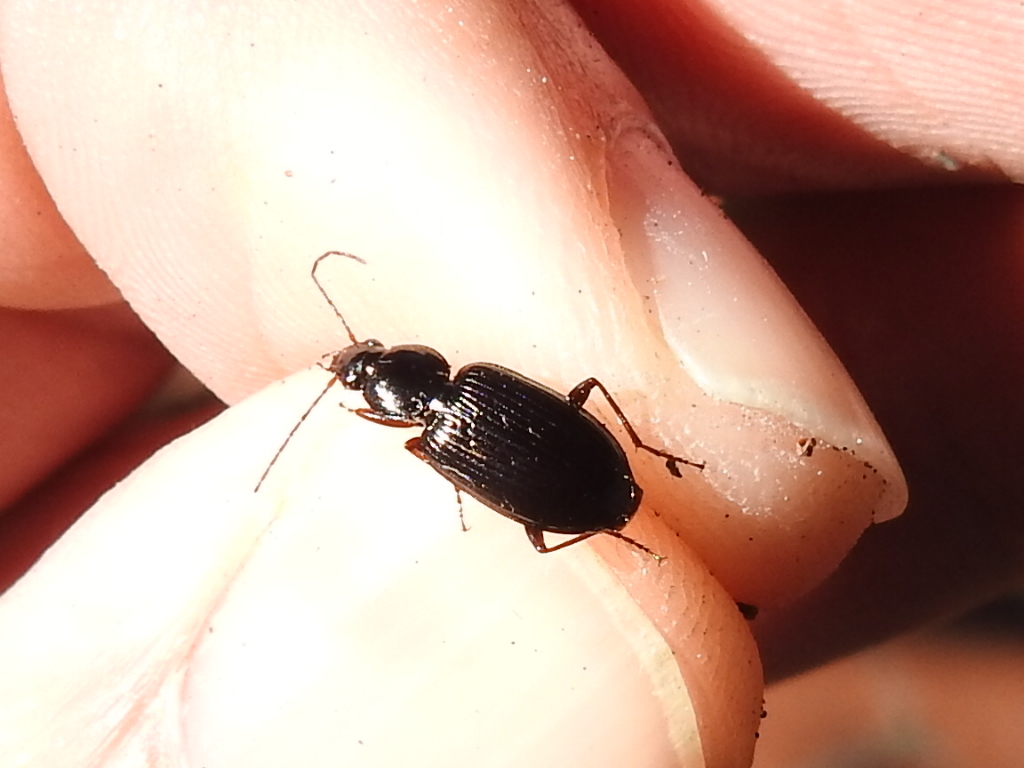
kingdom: Animalia
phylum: Arthropoda
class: Insecta
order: Coleoptera
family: Carabidae
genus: Agonum
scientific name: Agonum punctiforme
